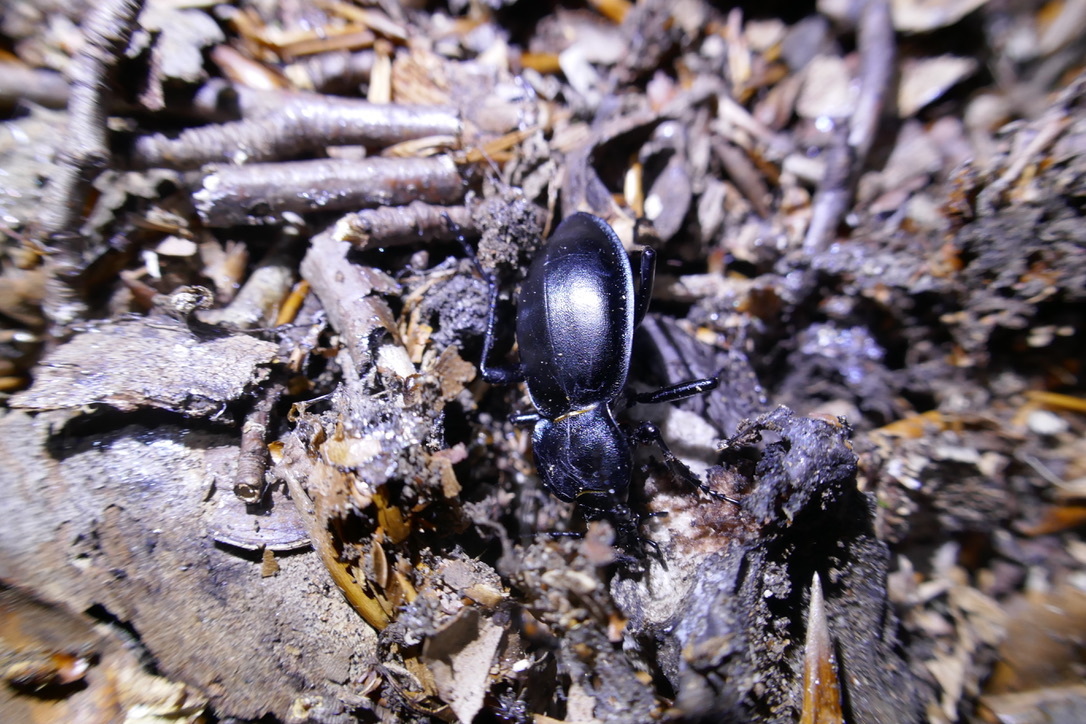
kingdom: Animalia
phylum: Arthropoda
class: Insecta
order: Coleoptera
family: Carabidae
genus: Carabus
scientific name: Carabus glabratus
